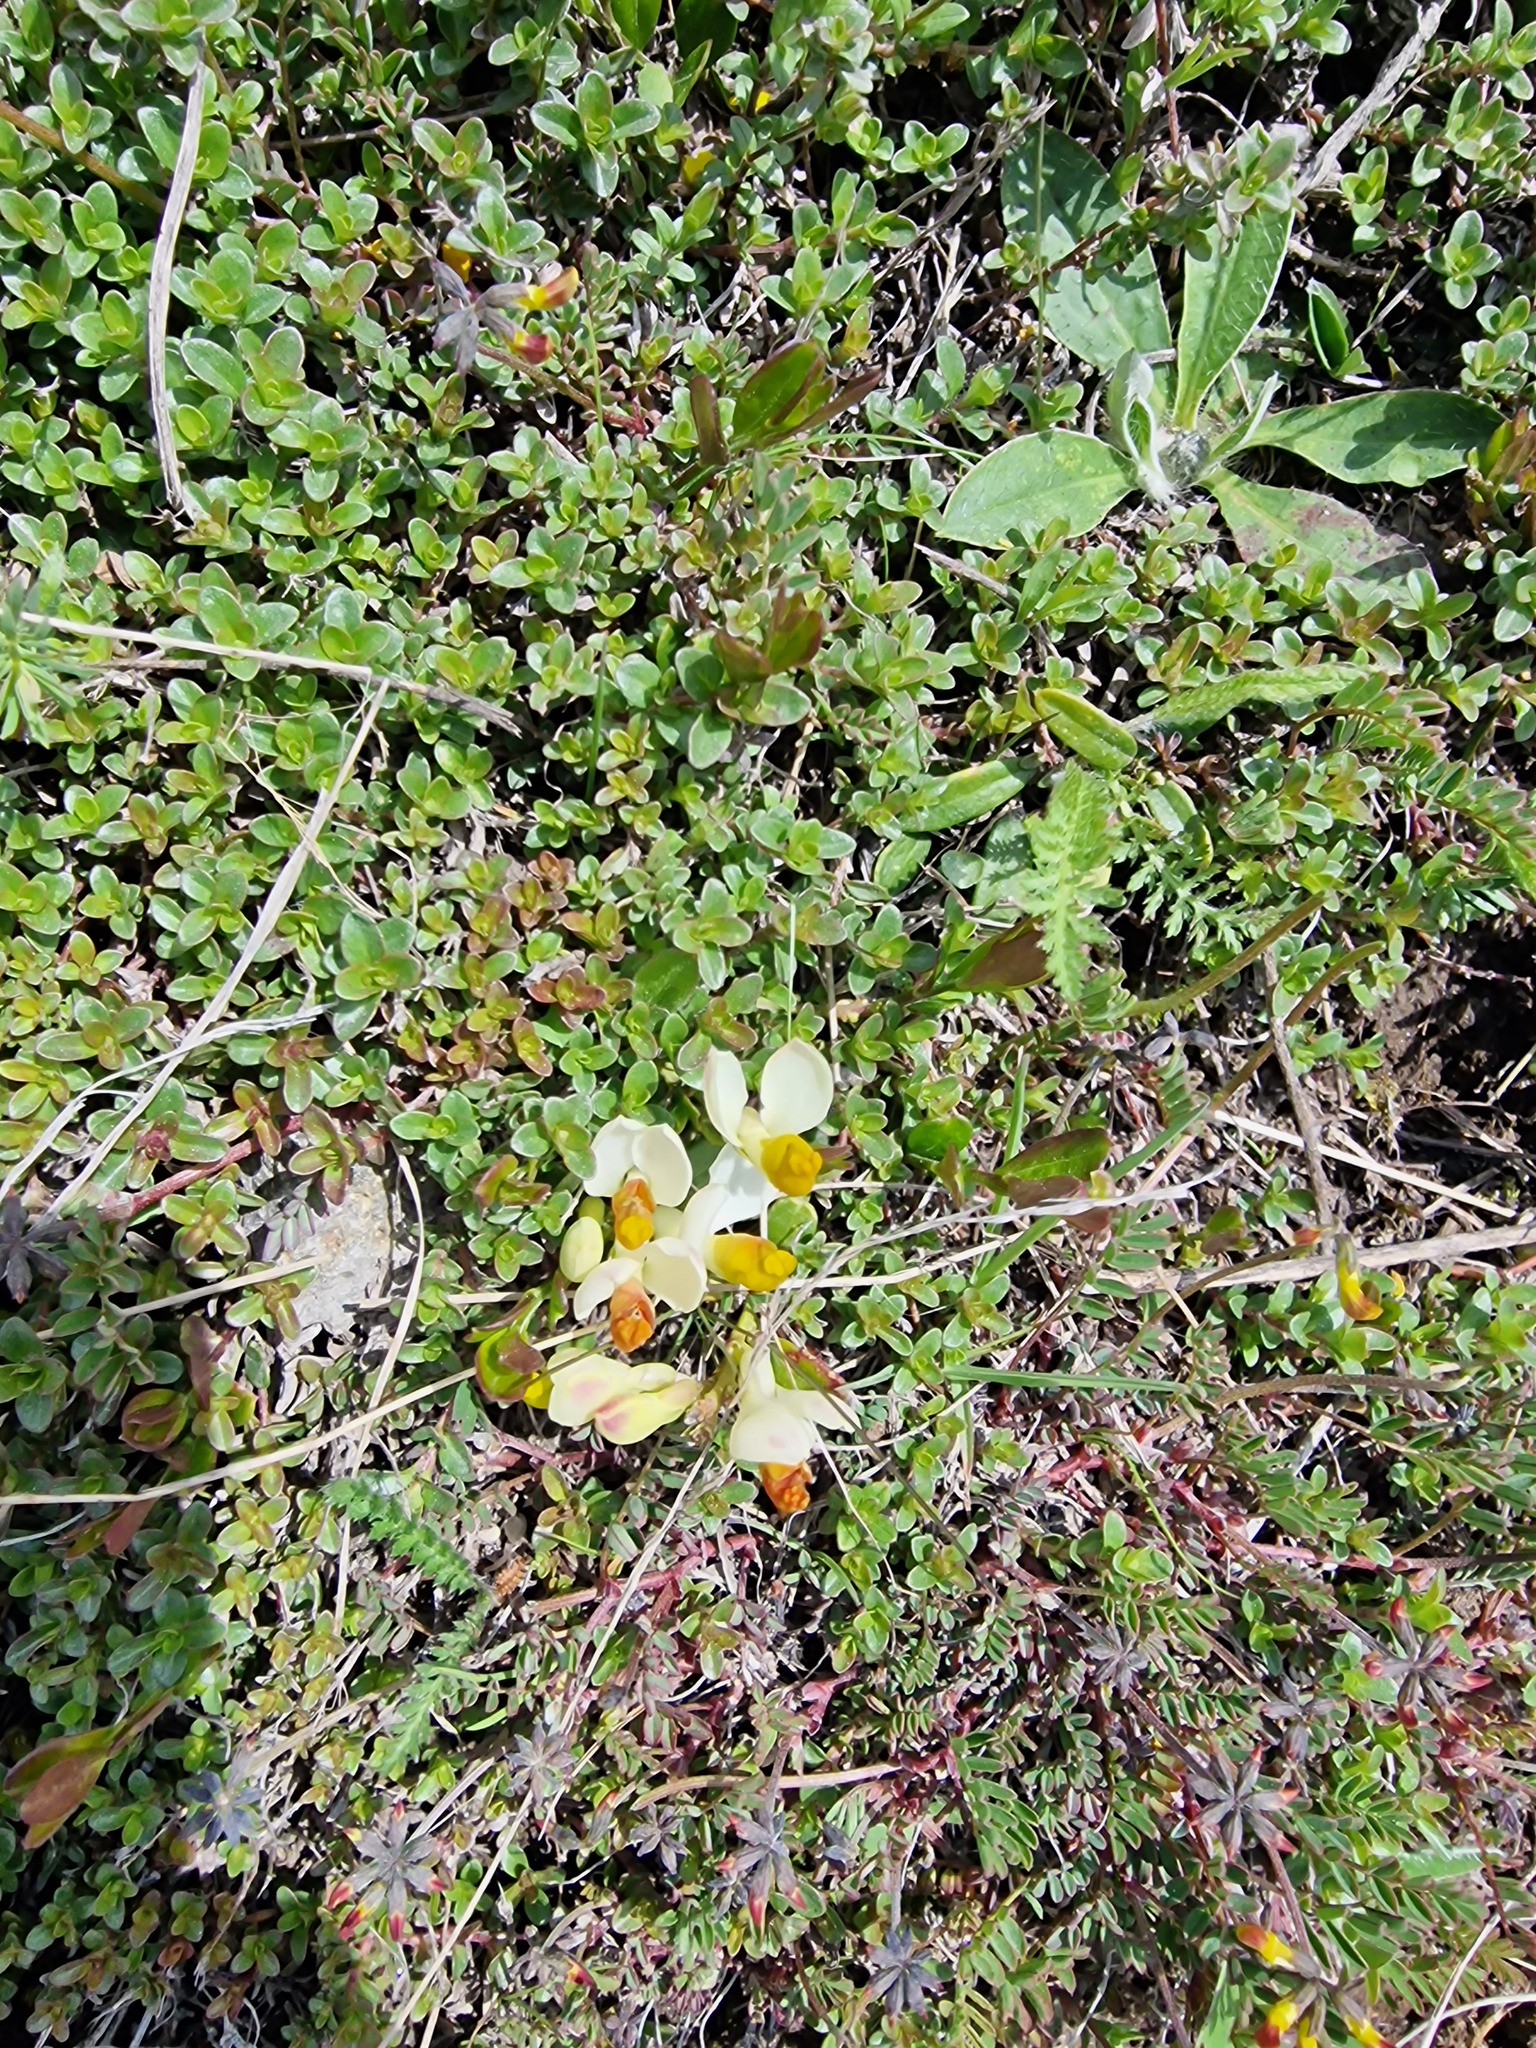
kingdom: Plantae
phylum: Tracheophyta
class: Magnoliopsida
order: Fabales
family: Polygalaceae
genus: Polygaloides
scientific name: Polygaloides chamaebuxus
